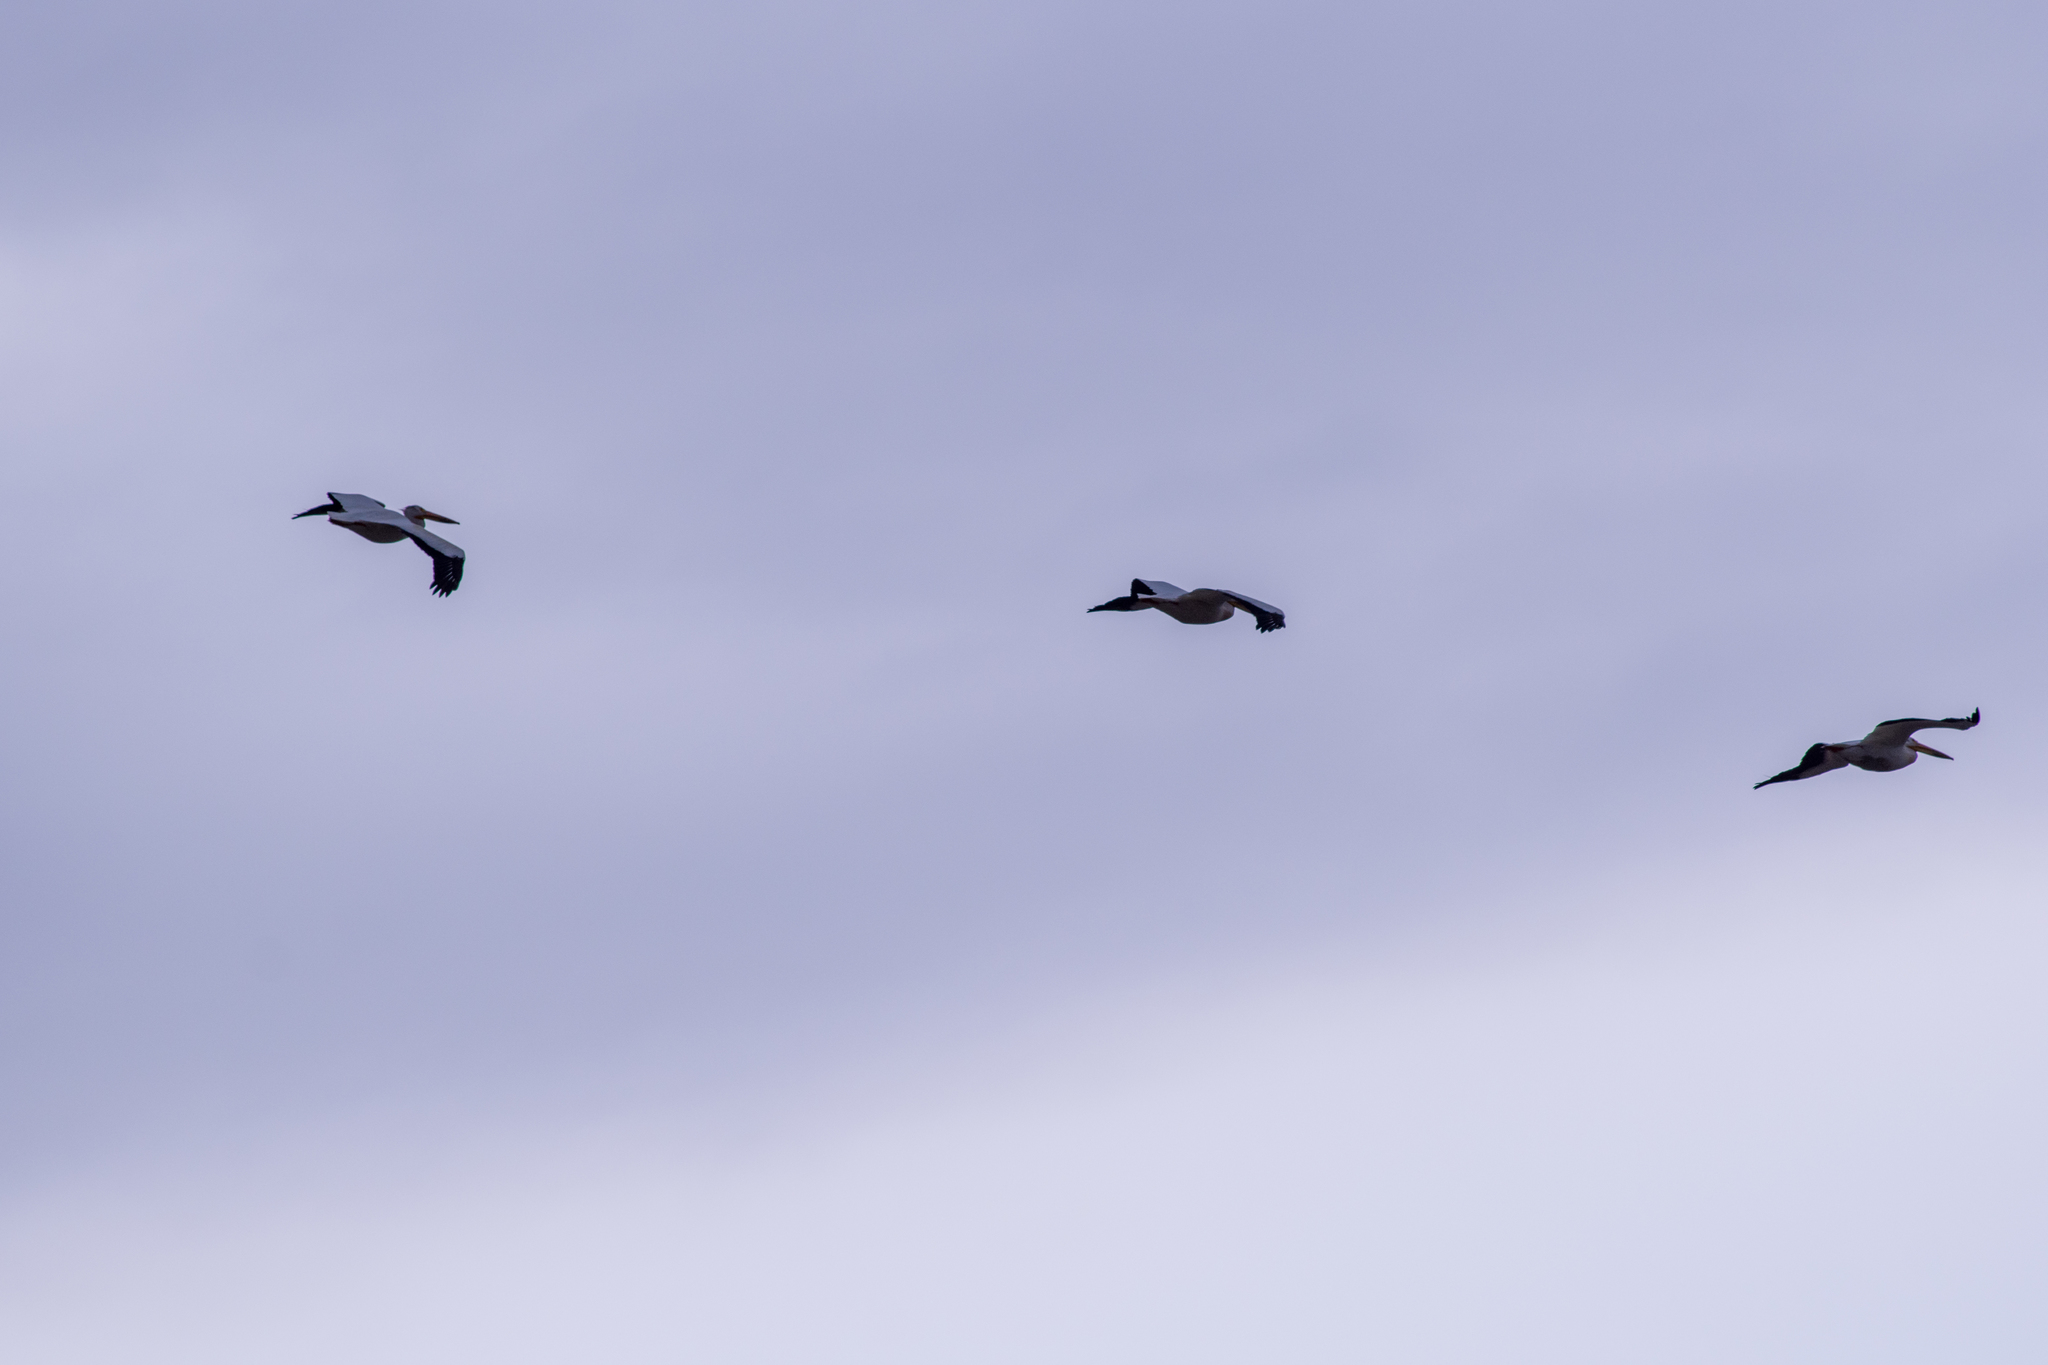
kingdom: Animalia
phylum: Chordata
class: Aves
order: Pelecaniformes
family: Pelecanidae
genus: Pelecanus
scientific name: Pelecanus erythrorhynchos
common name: American white pelican
